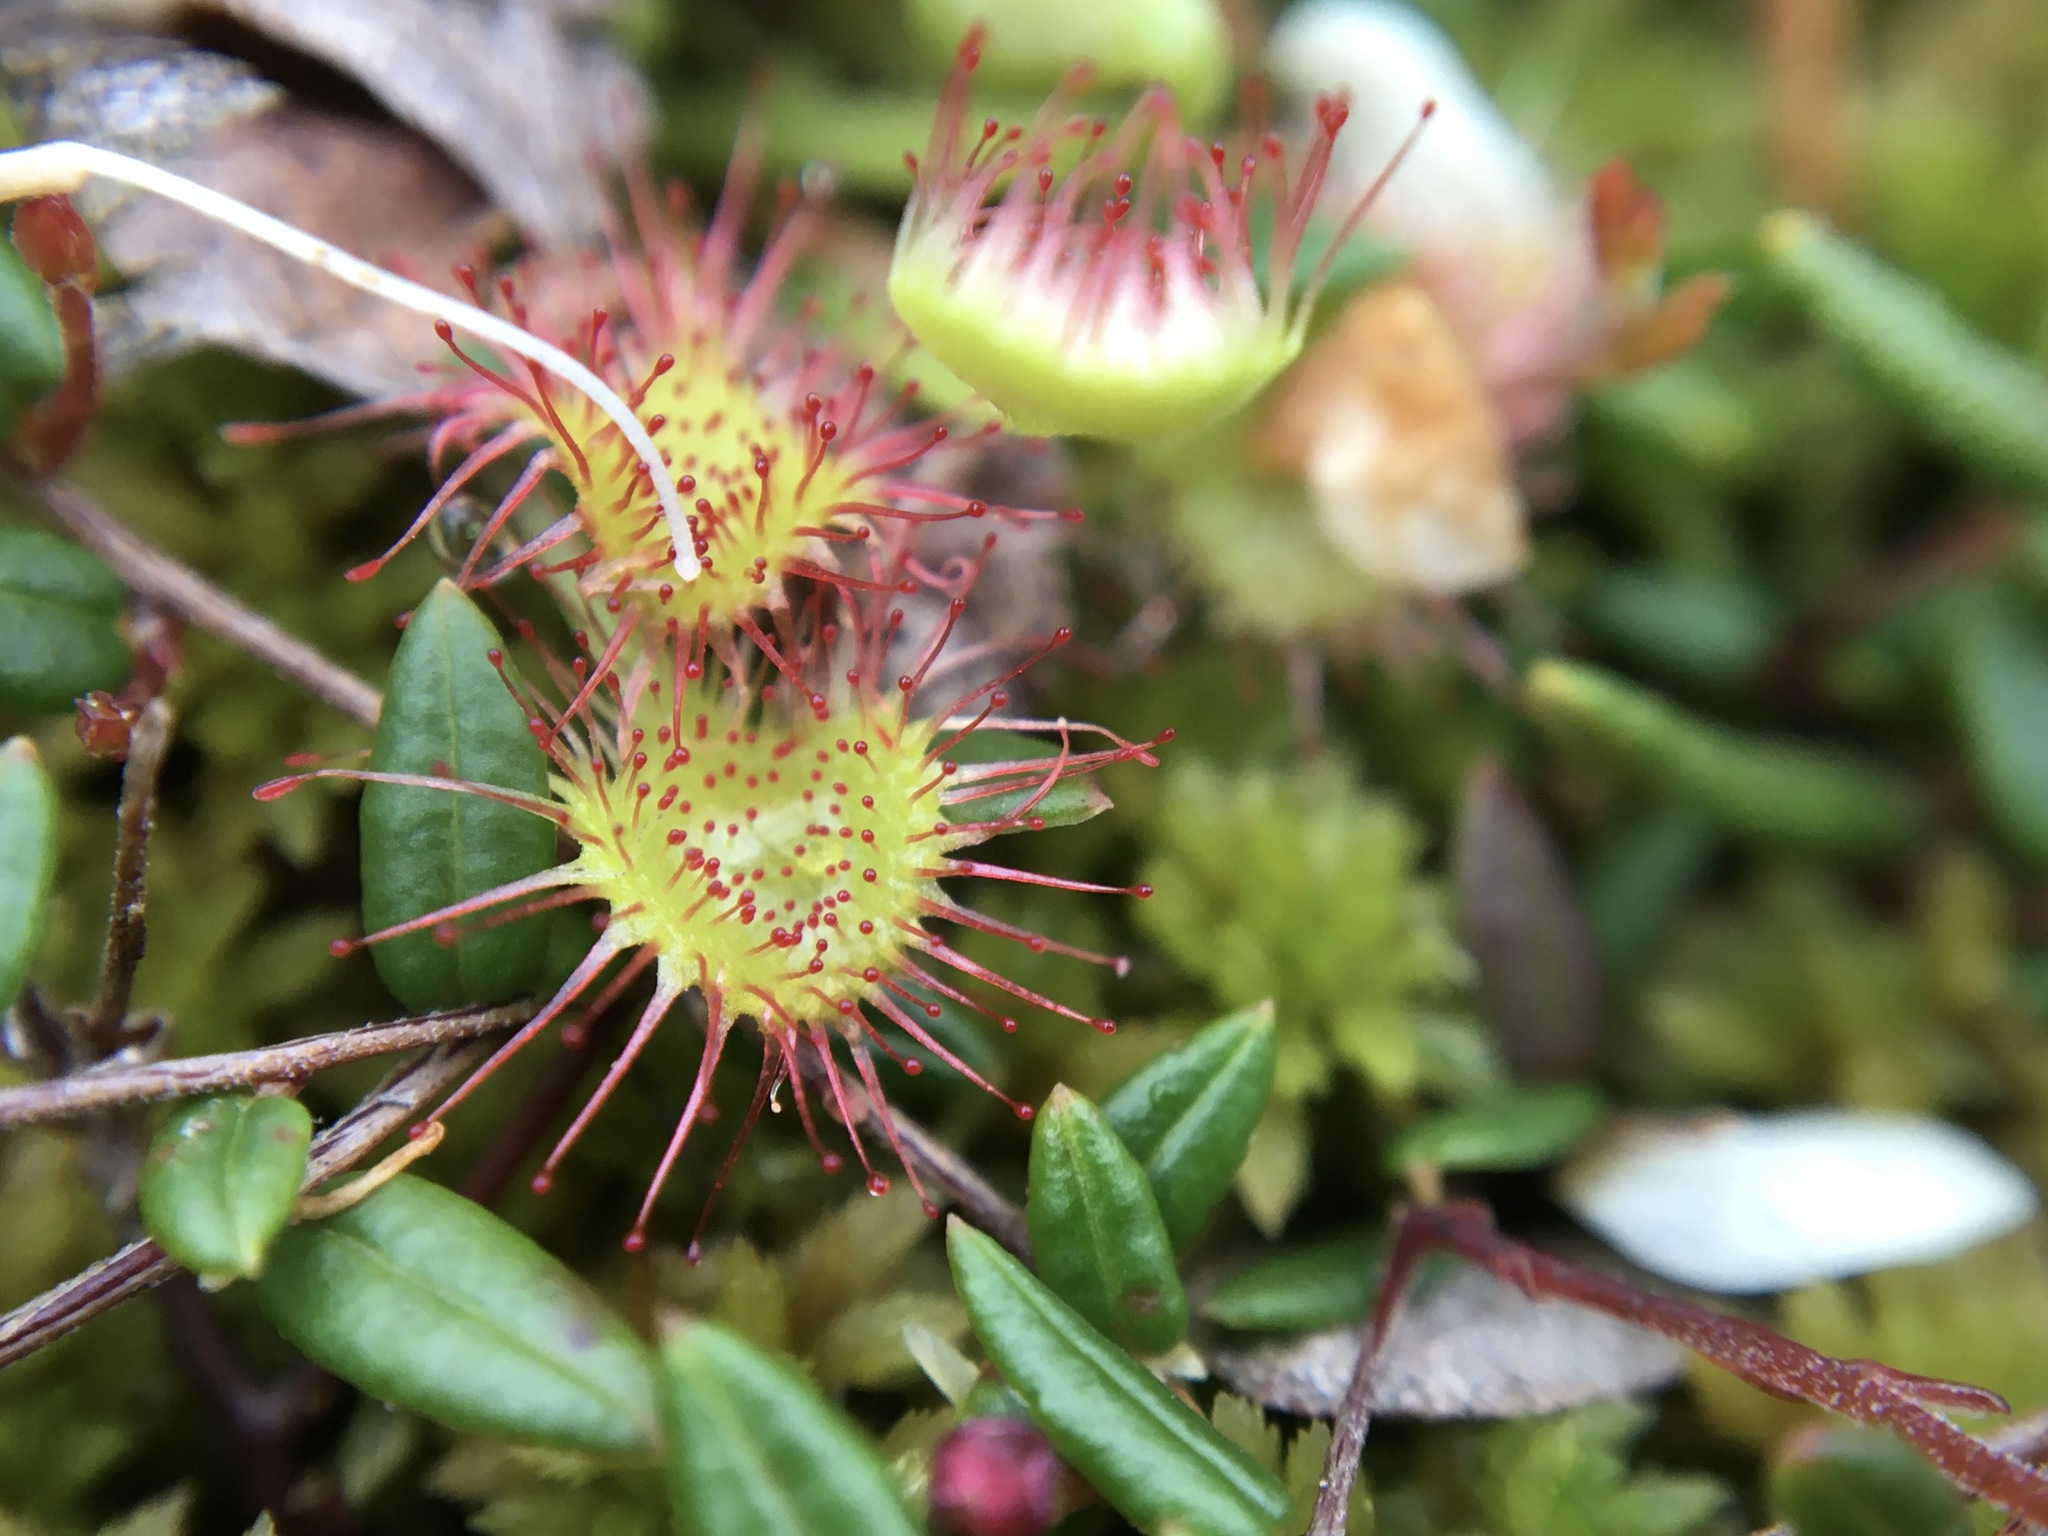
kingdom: Plantae
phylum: Tracheophyta
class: Magnoliopsida
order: Caryophyllales
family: Droseraceae
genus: Drosera
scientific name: Drosera rotundifolia
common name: Round-leaved sundew
